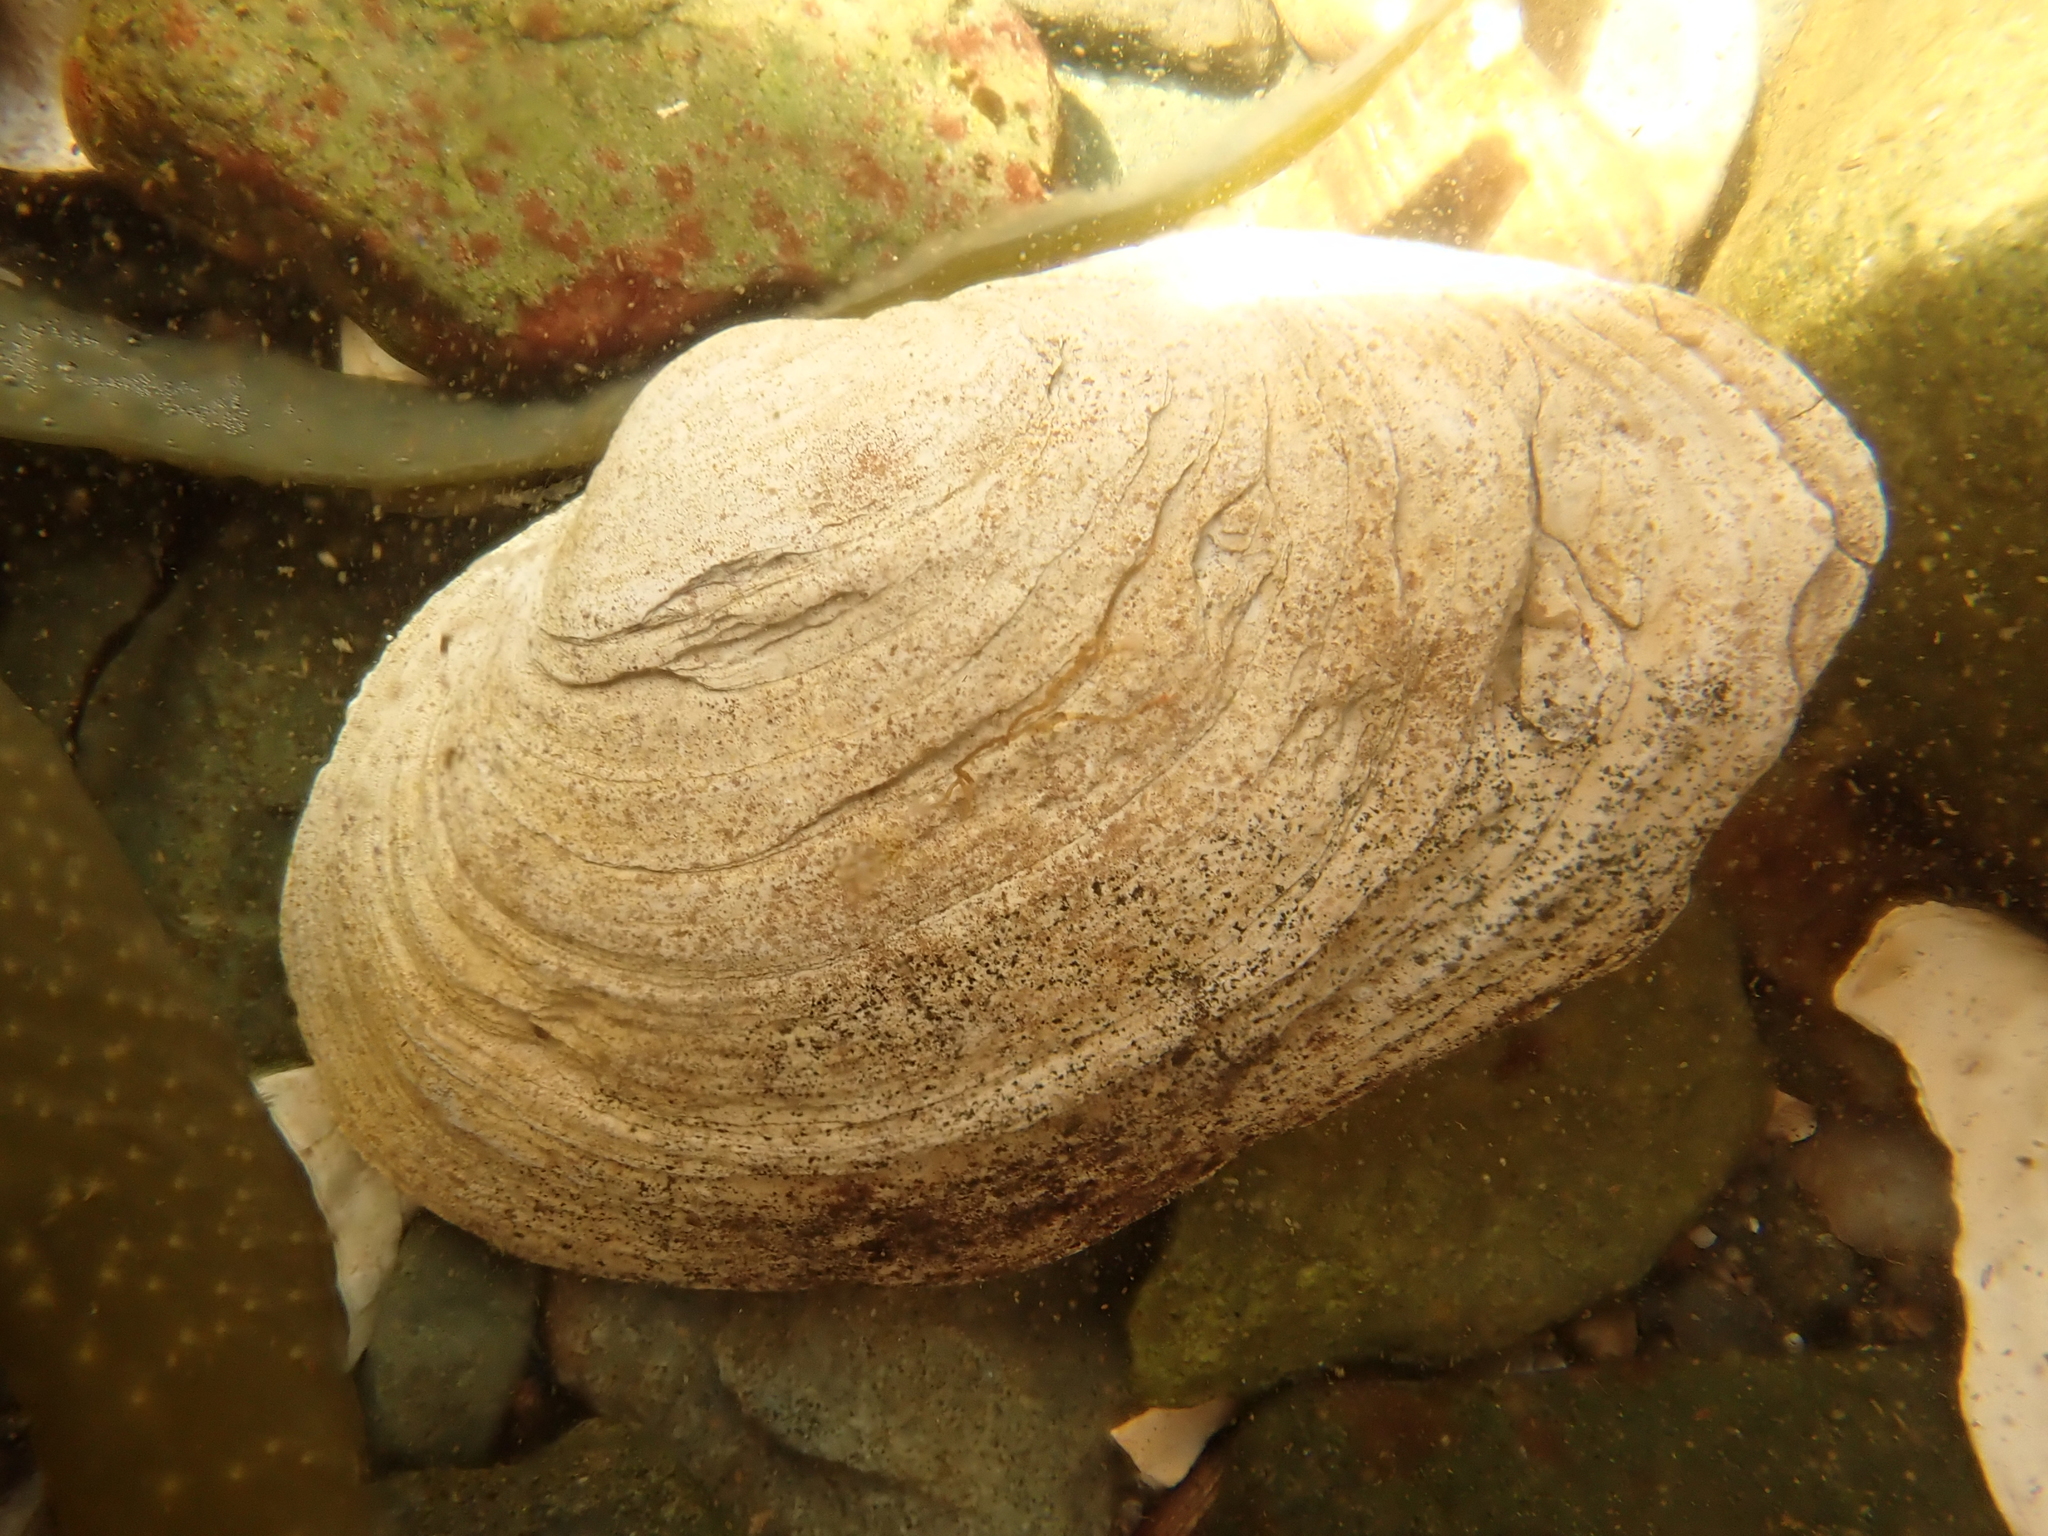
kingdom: Animalia
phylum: Mollusca
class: Bivalvia
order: Myida
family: Myidae
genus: Mya
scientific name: Mya arenaria
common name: Soft-shelled clam
